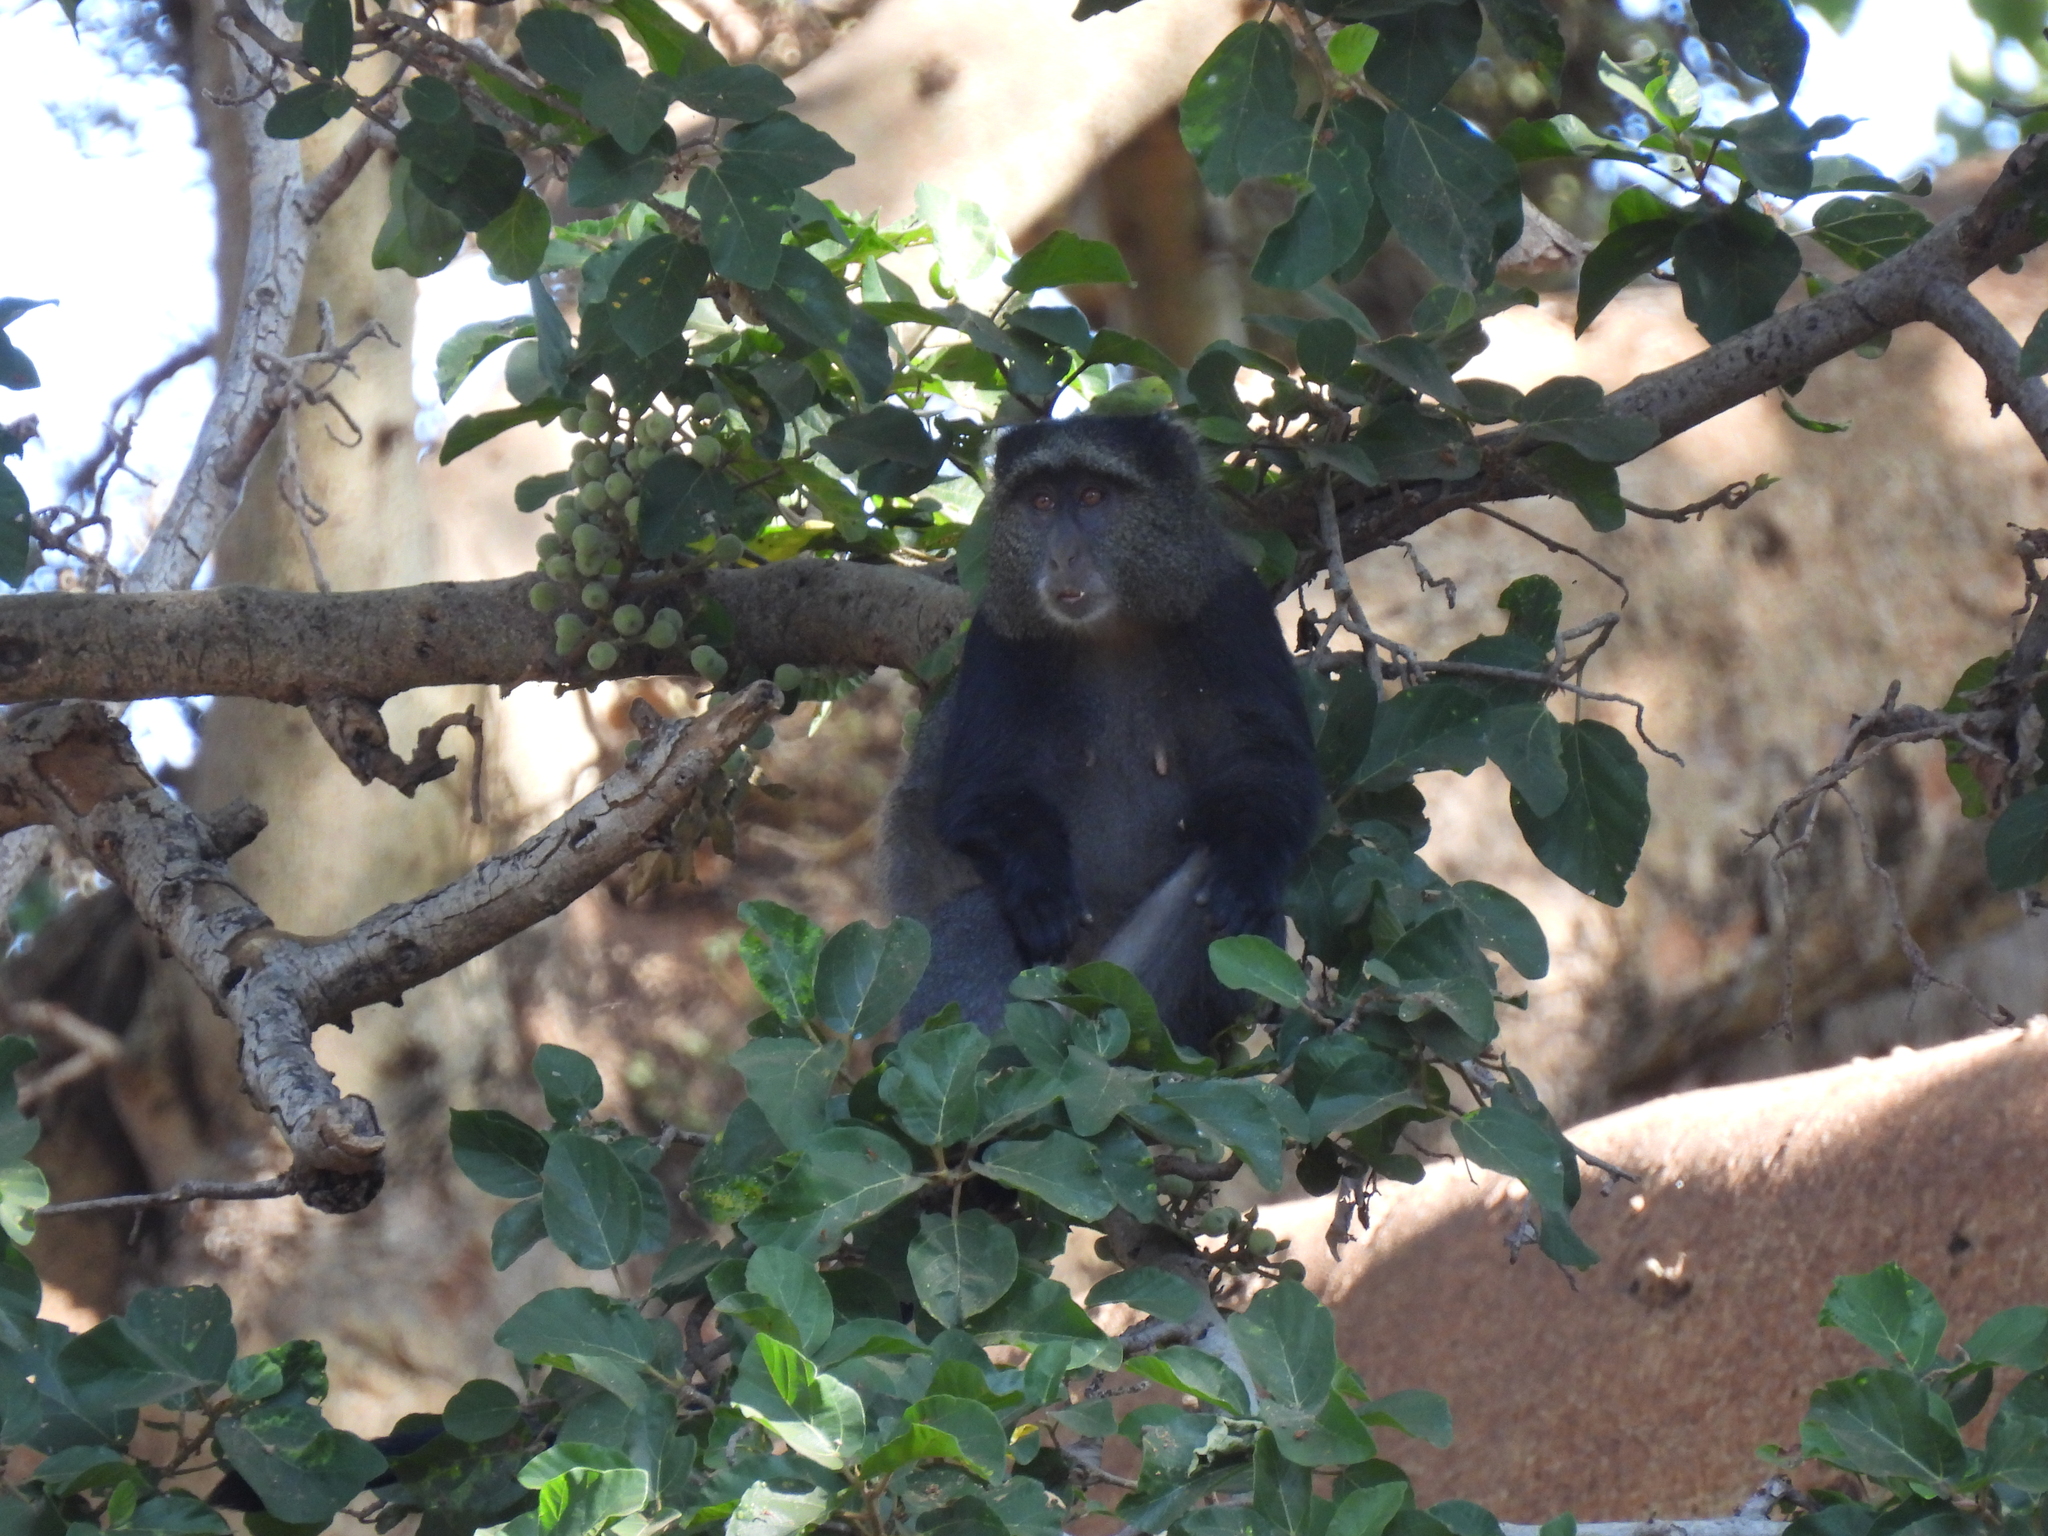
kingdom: Animalia
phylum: Chordata
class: Mammalia
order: Primates
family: Cercopithecidae
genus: Cercopithecus
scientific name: Cercopithecus mitis
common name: Blue monkey
